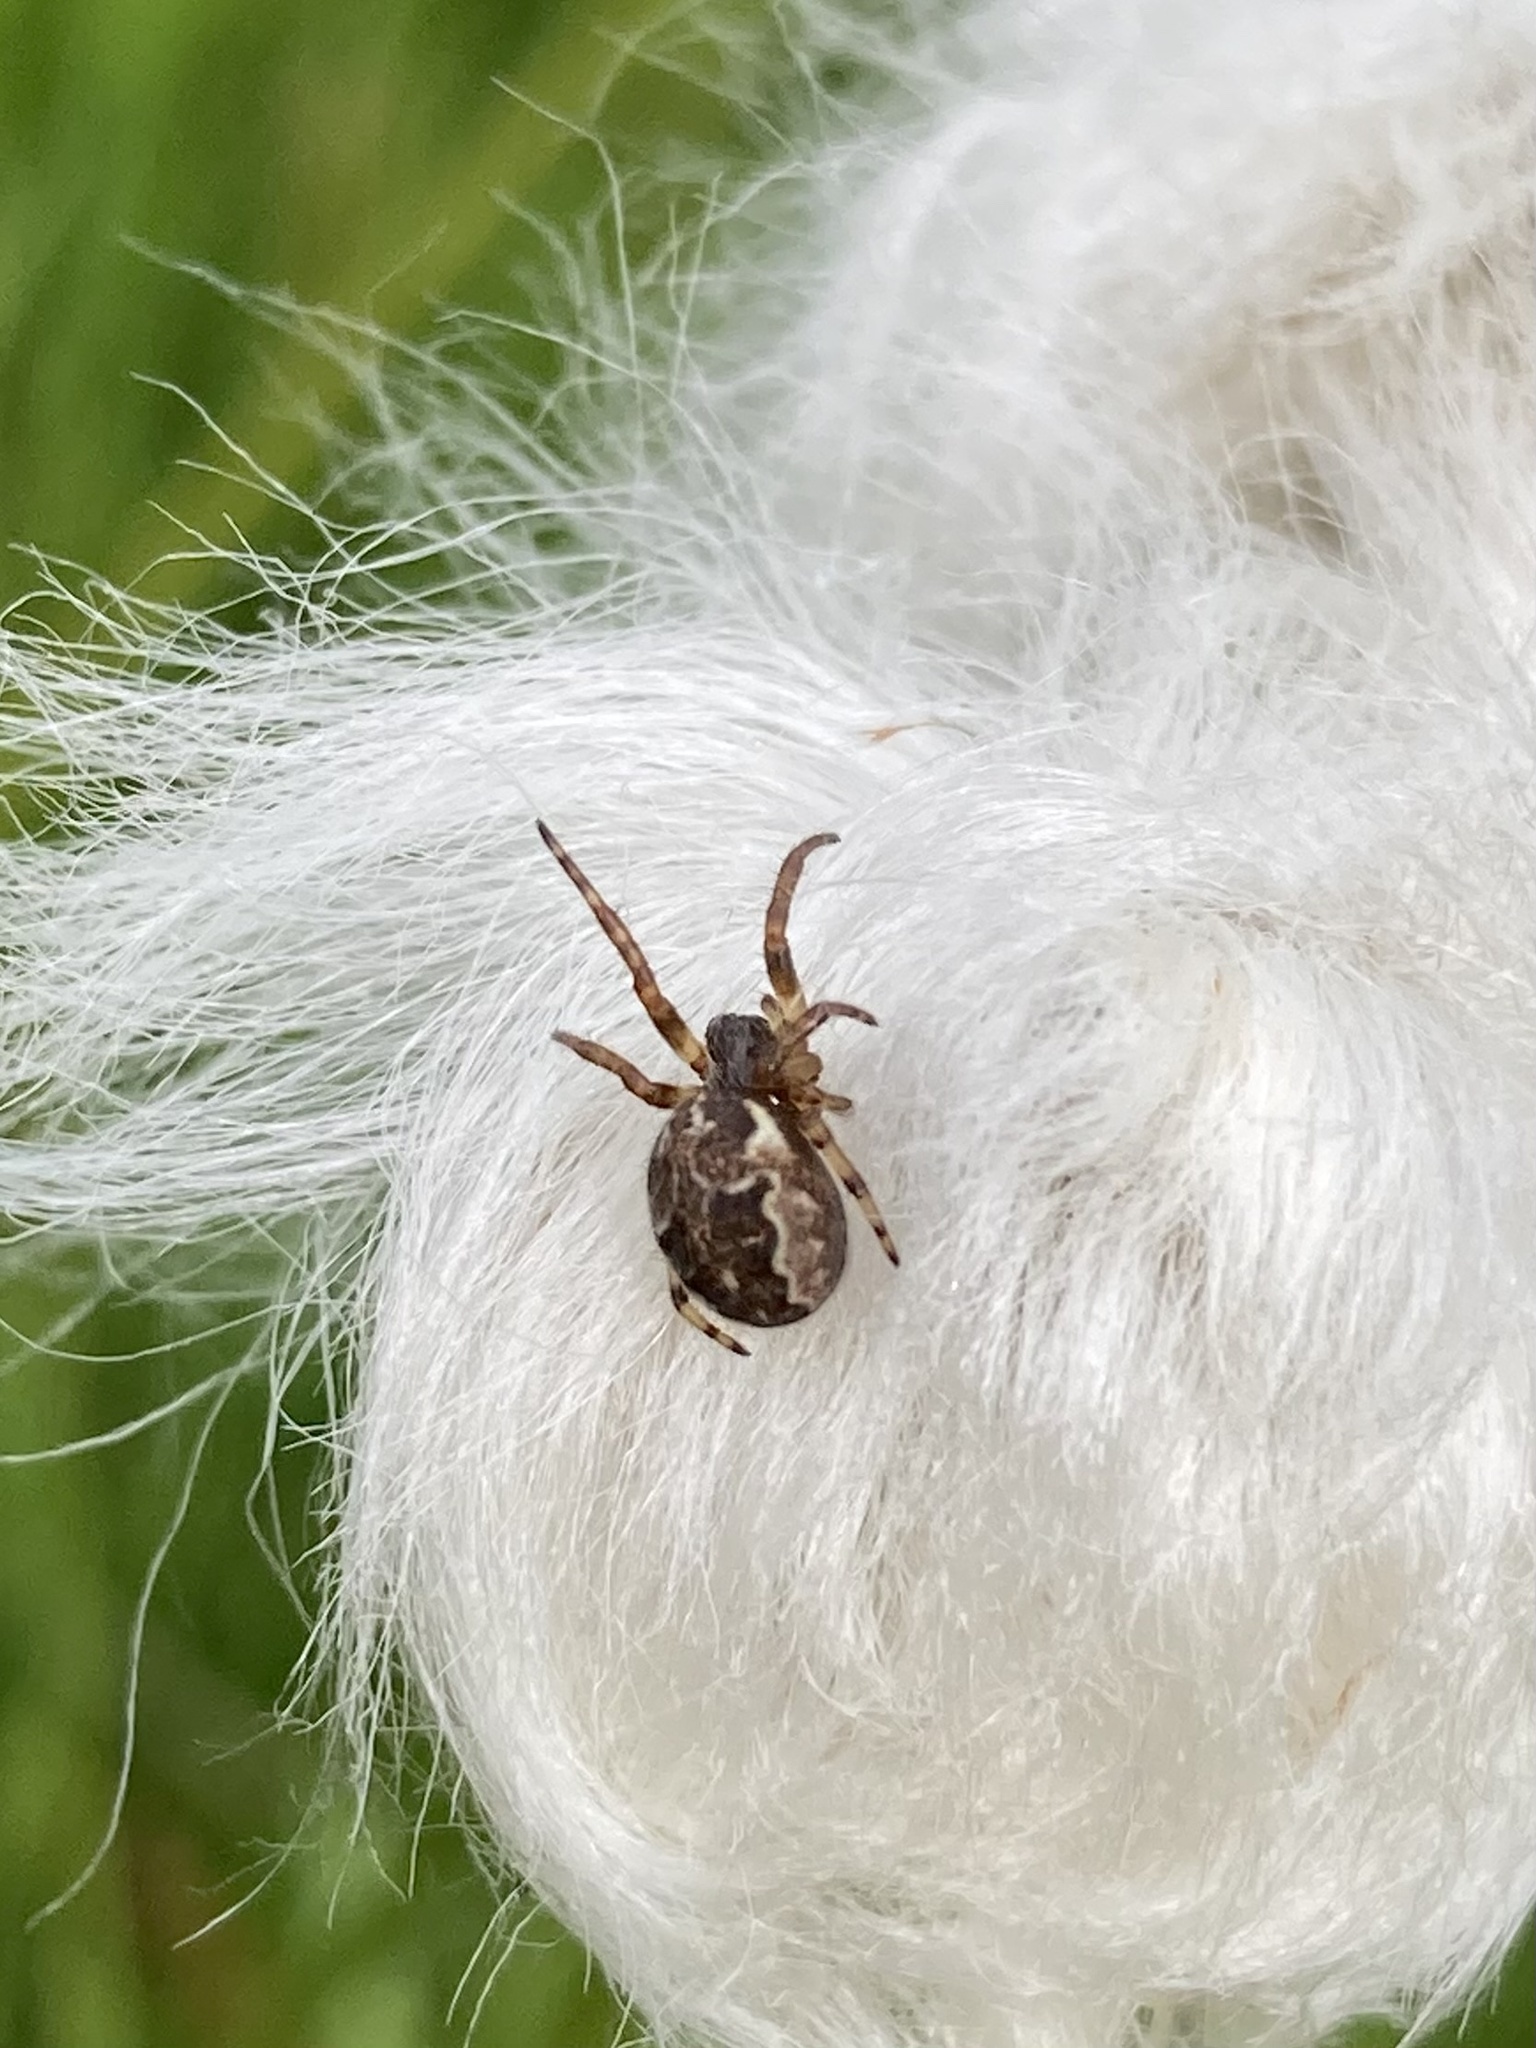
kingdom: Animalia
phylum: Arthropoda
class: Arachnida
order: Araneae
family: Araneidae
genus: Larinioides
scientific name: Larinioides cornutus
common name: Furrow orbweaver
